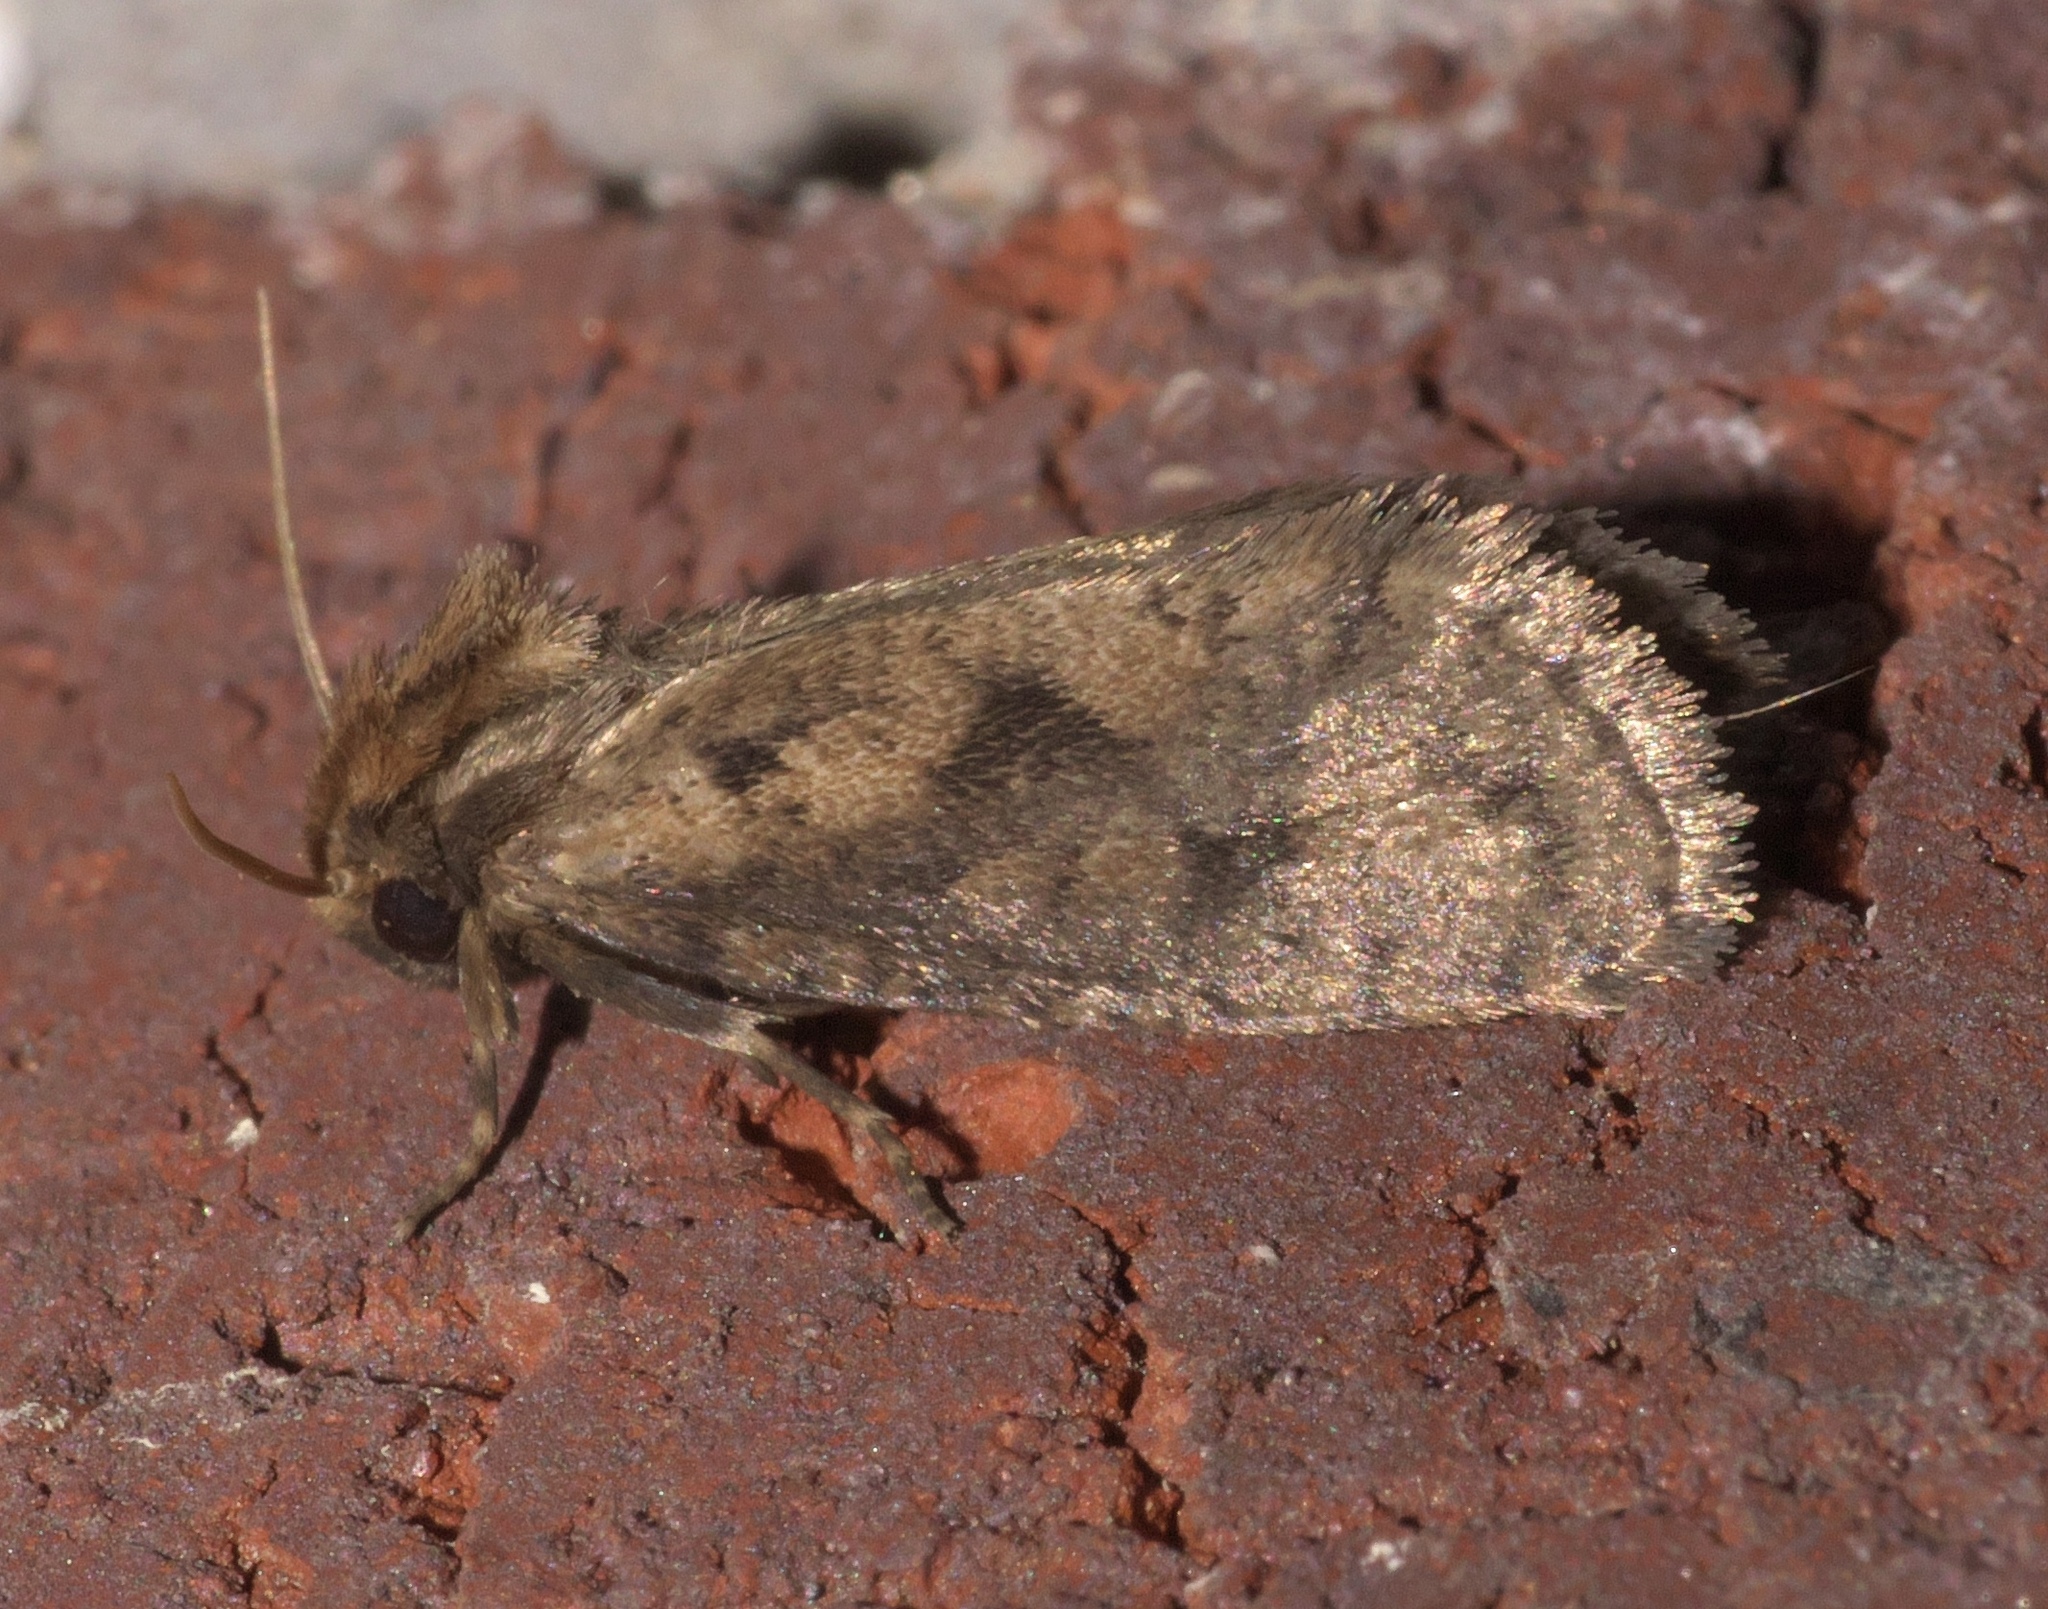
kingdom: Animalia
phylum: Arthropoda
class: Insecta
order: Lepidoptera
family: Tineidae
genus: Acrolophus
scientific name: Acrolophus popeanella
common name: Clemens' grass tubeworm moth
